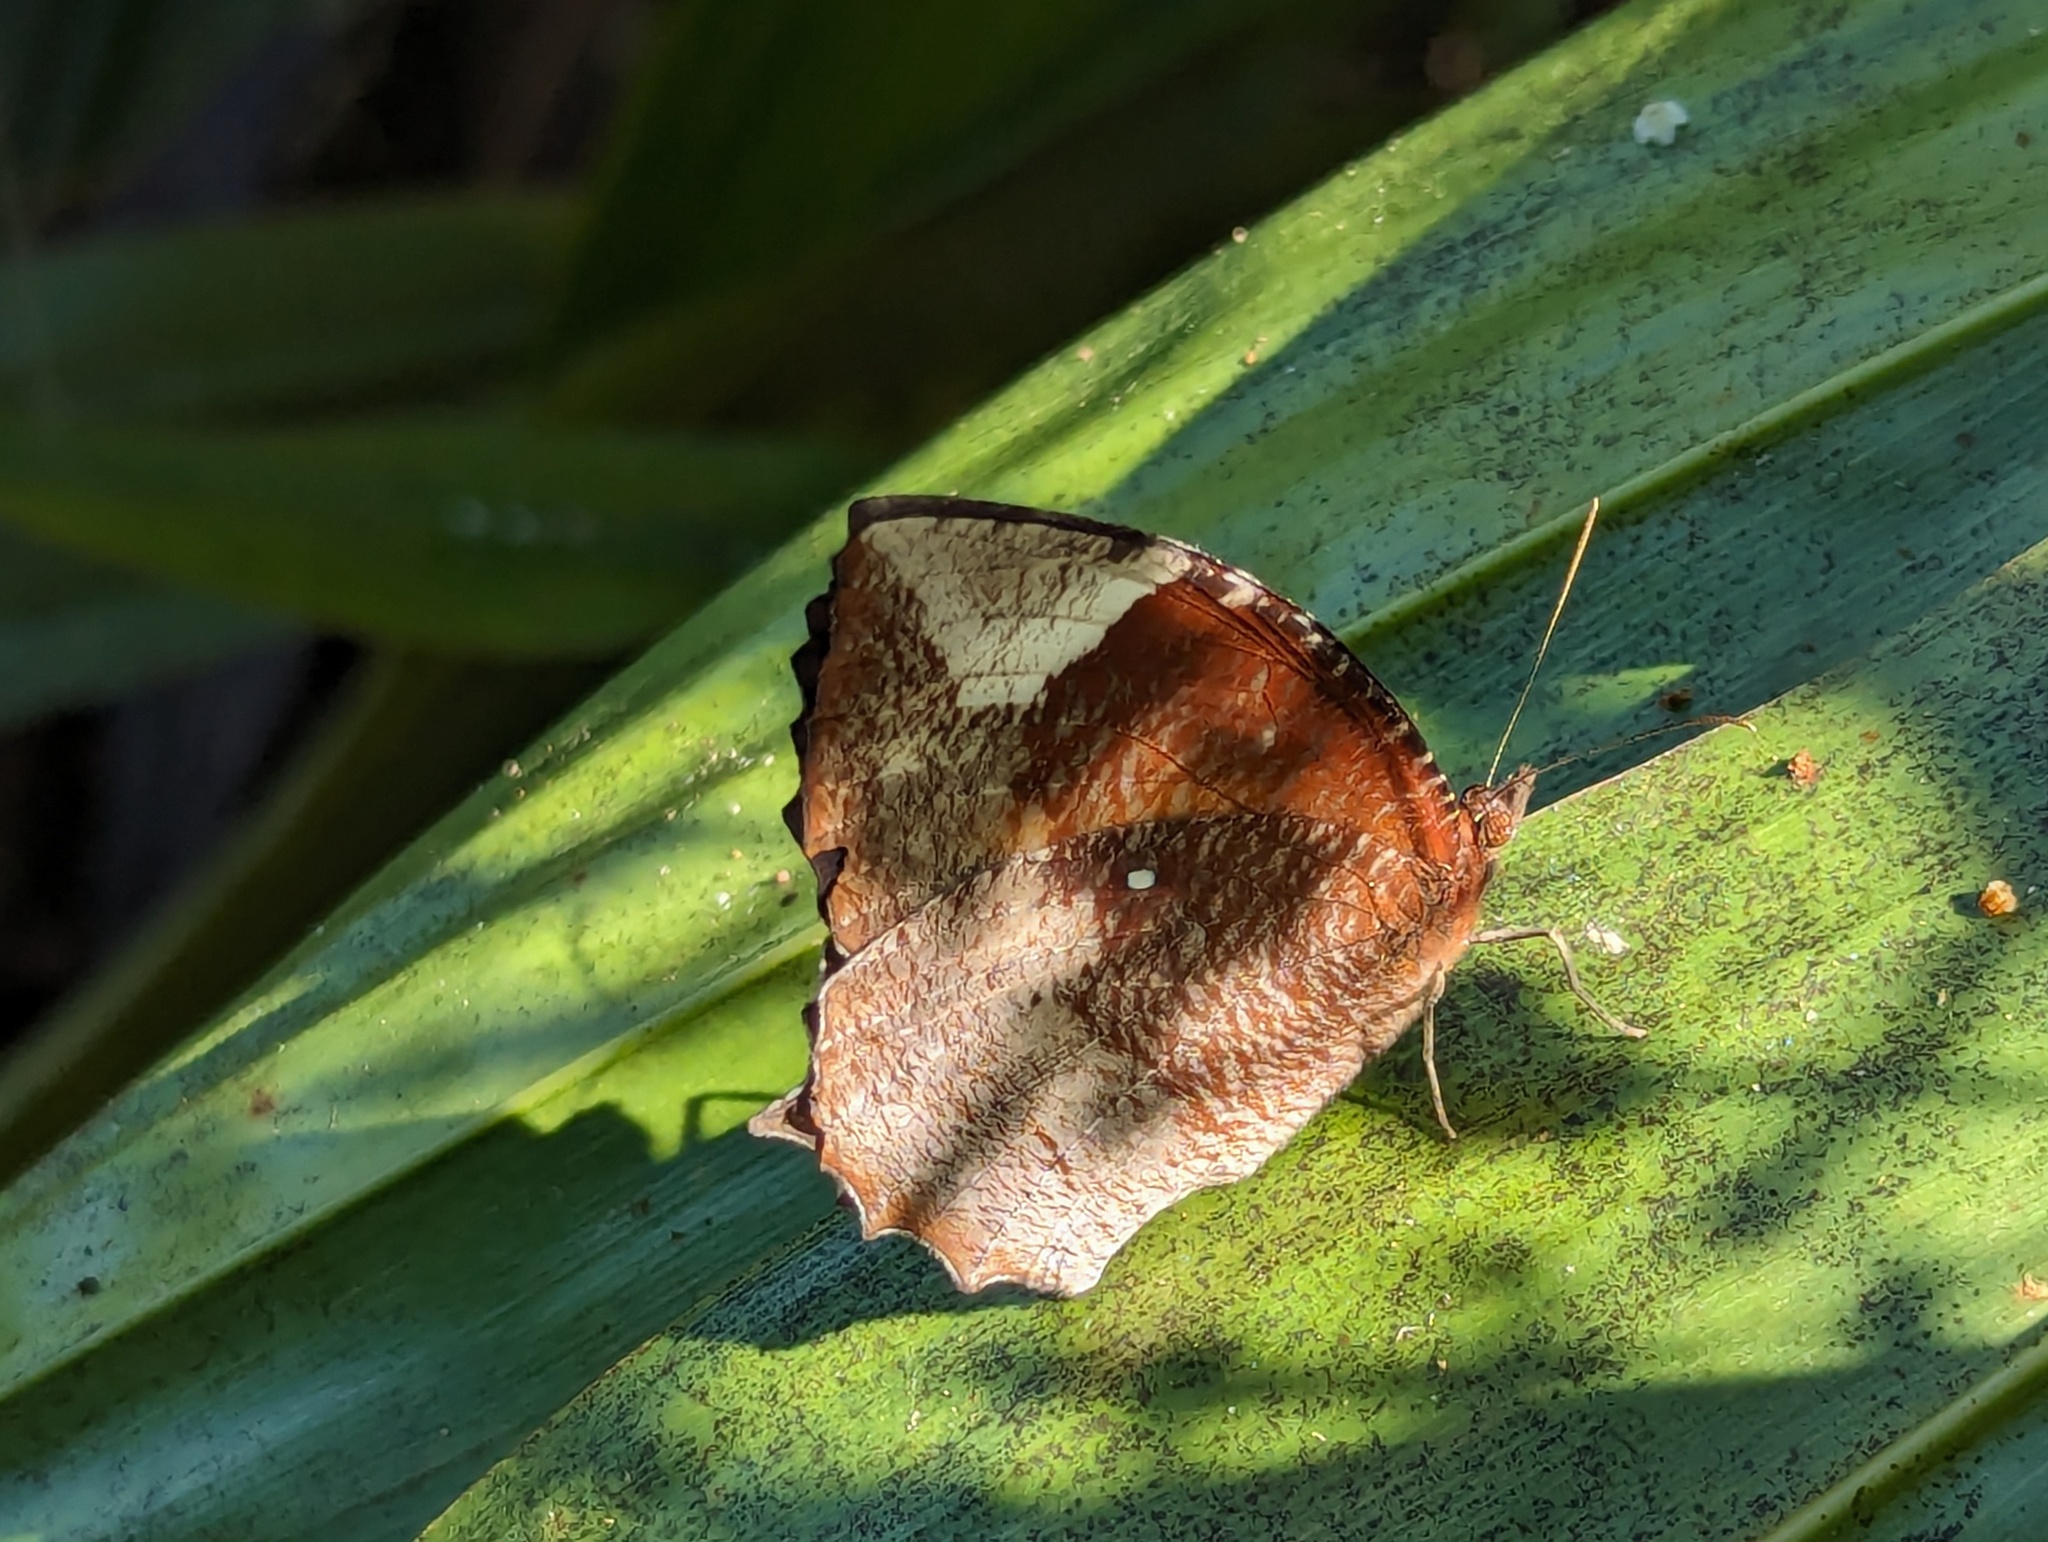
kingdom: Animalia
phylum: Arthropoda
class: Insecta
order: Lepidoptera
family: Nymphalidae
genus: Elymnias
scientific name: Elymnias hypermnestra
